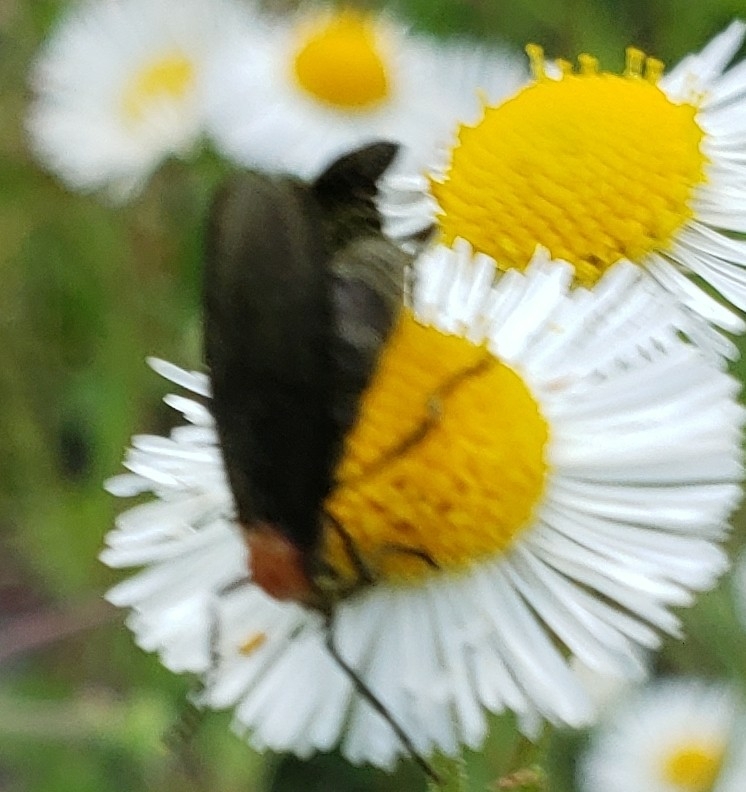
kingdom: Animalia
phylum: Arthropoda
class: Insecta
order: Diptera
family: Bibionidae
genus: Plecia
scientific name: Plecia nearctica
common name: March fly
